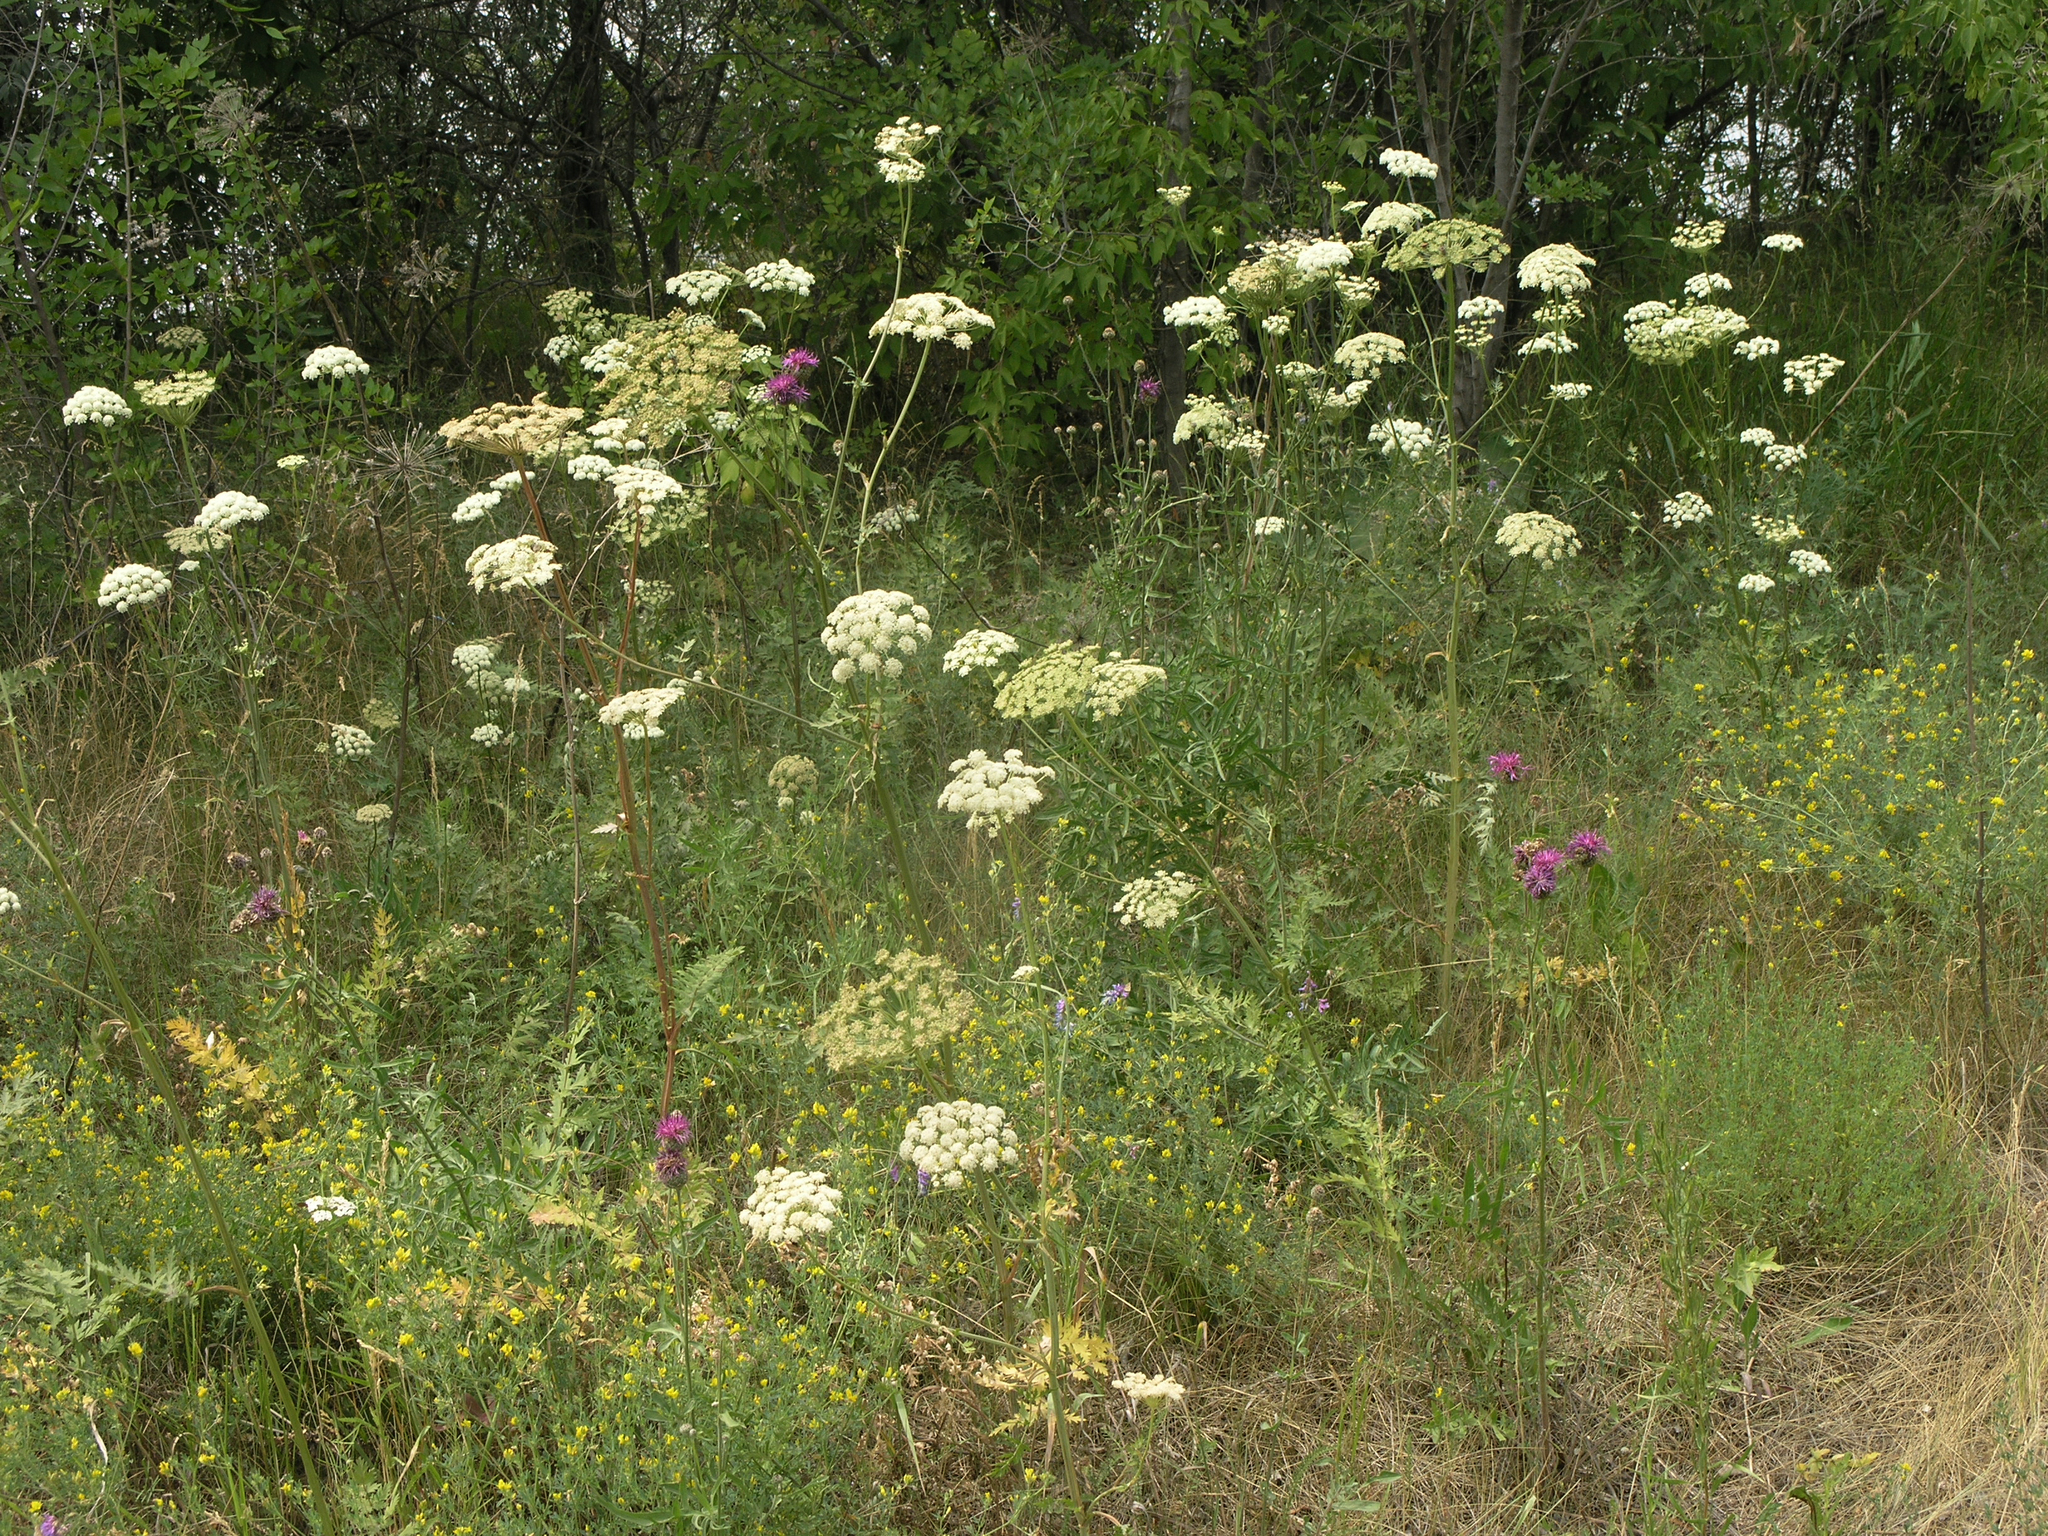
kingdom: Plantae
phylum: Tracheophyta
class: Magnoliopsida
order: Apiales
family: Apiaceae
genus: Seseli
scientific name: Seseli libanotis
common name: Mooncarrot
